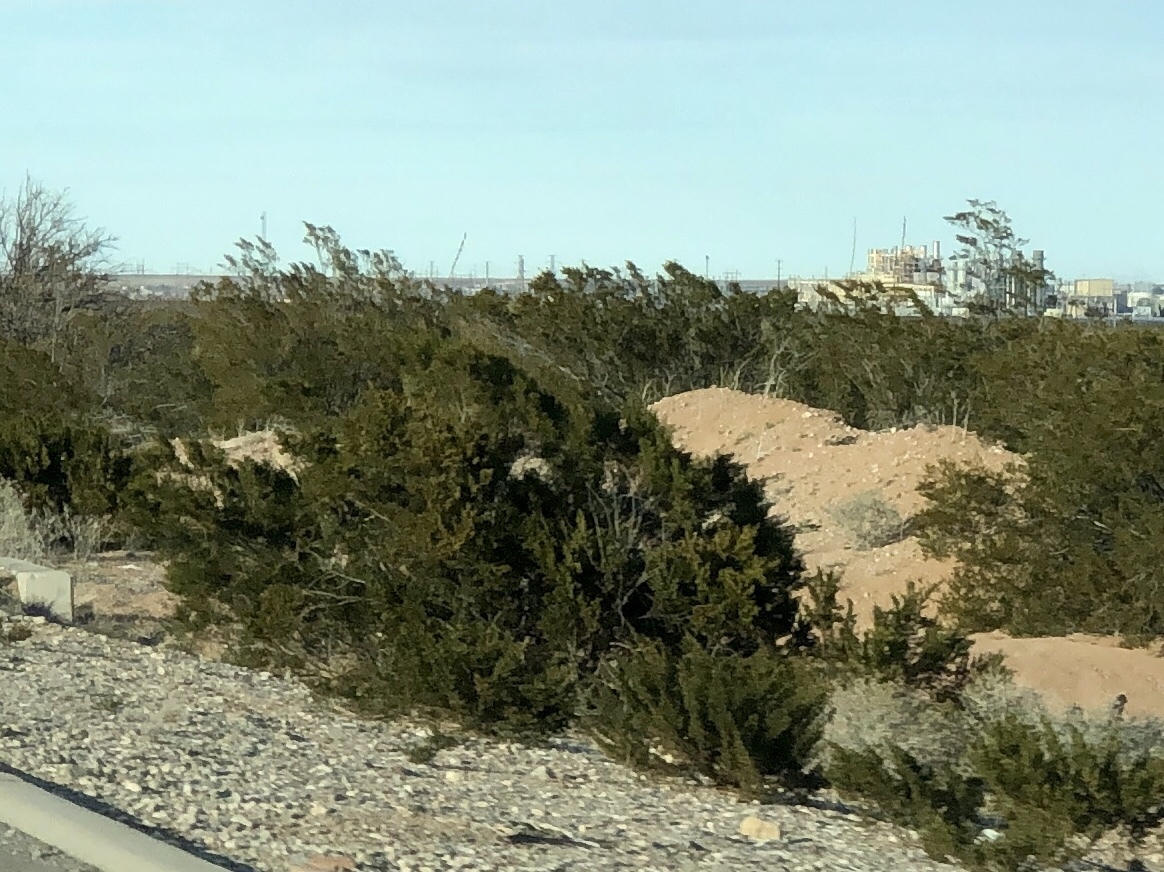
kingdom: Plantae
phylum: Tracheophyta
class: Magnoliopsida
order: Zygophyllales
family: Zygophyllaceae
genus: Larrea
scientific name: Larrea tridentata
